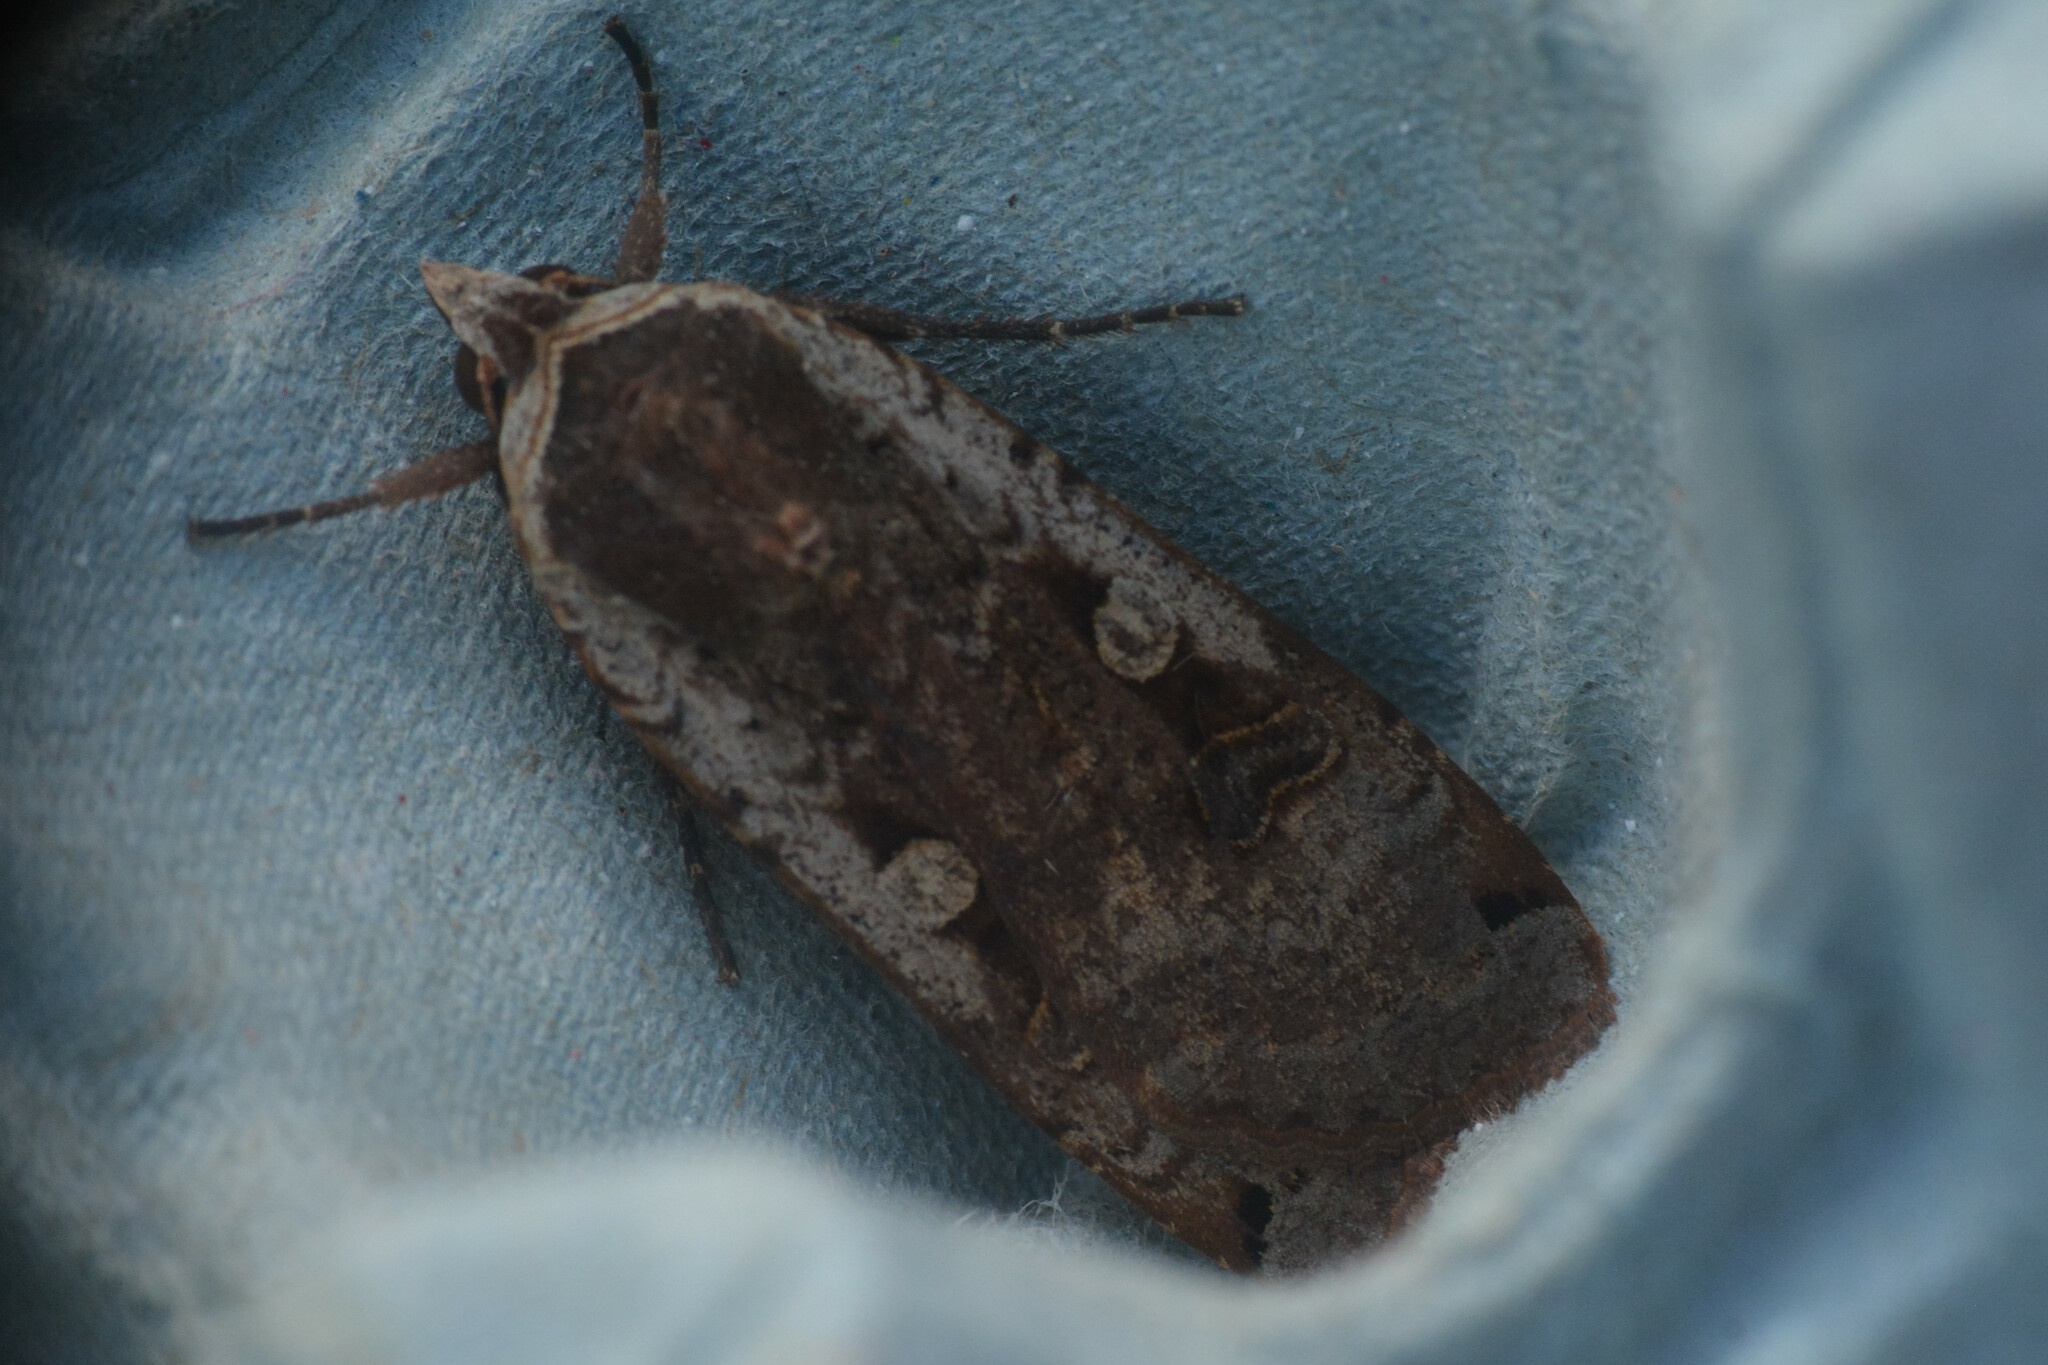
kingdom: Animalia
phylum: Arthropoda
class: Insecta
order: Lepidoptera
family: Noctuidae
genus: Noctua
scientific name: Noctua pronuba
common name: Large yellow underwing
